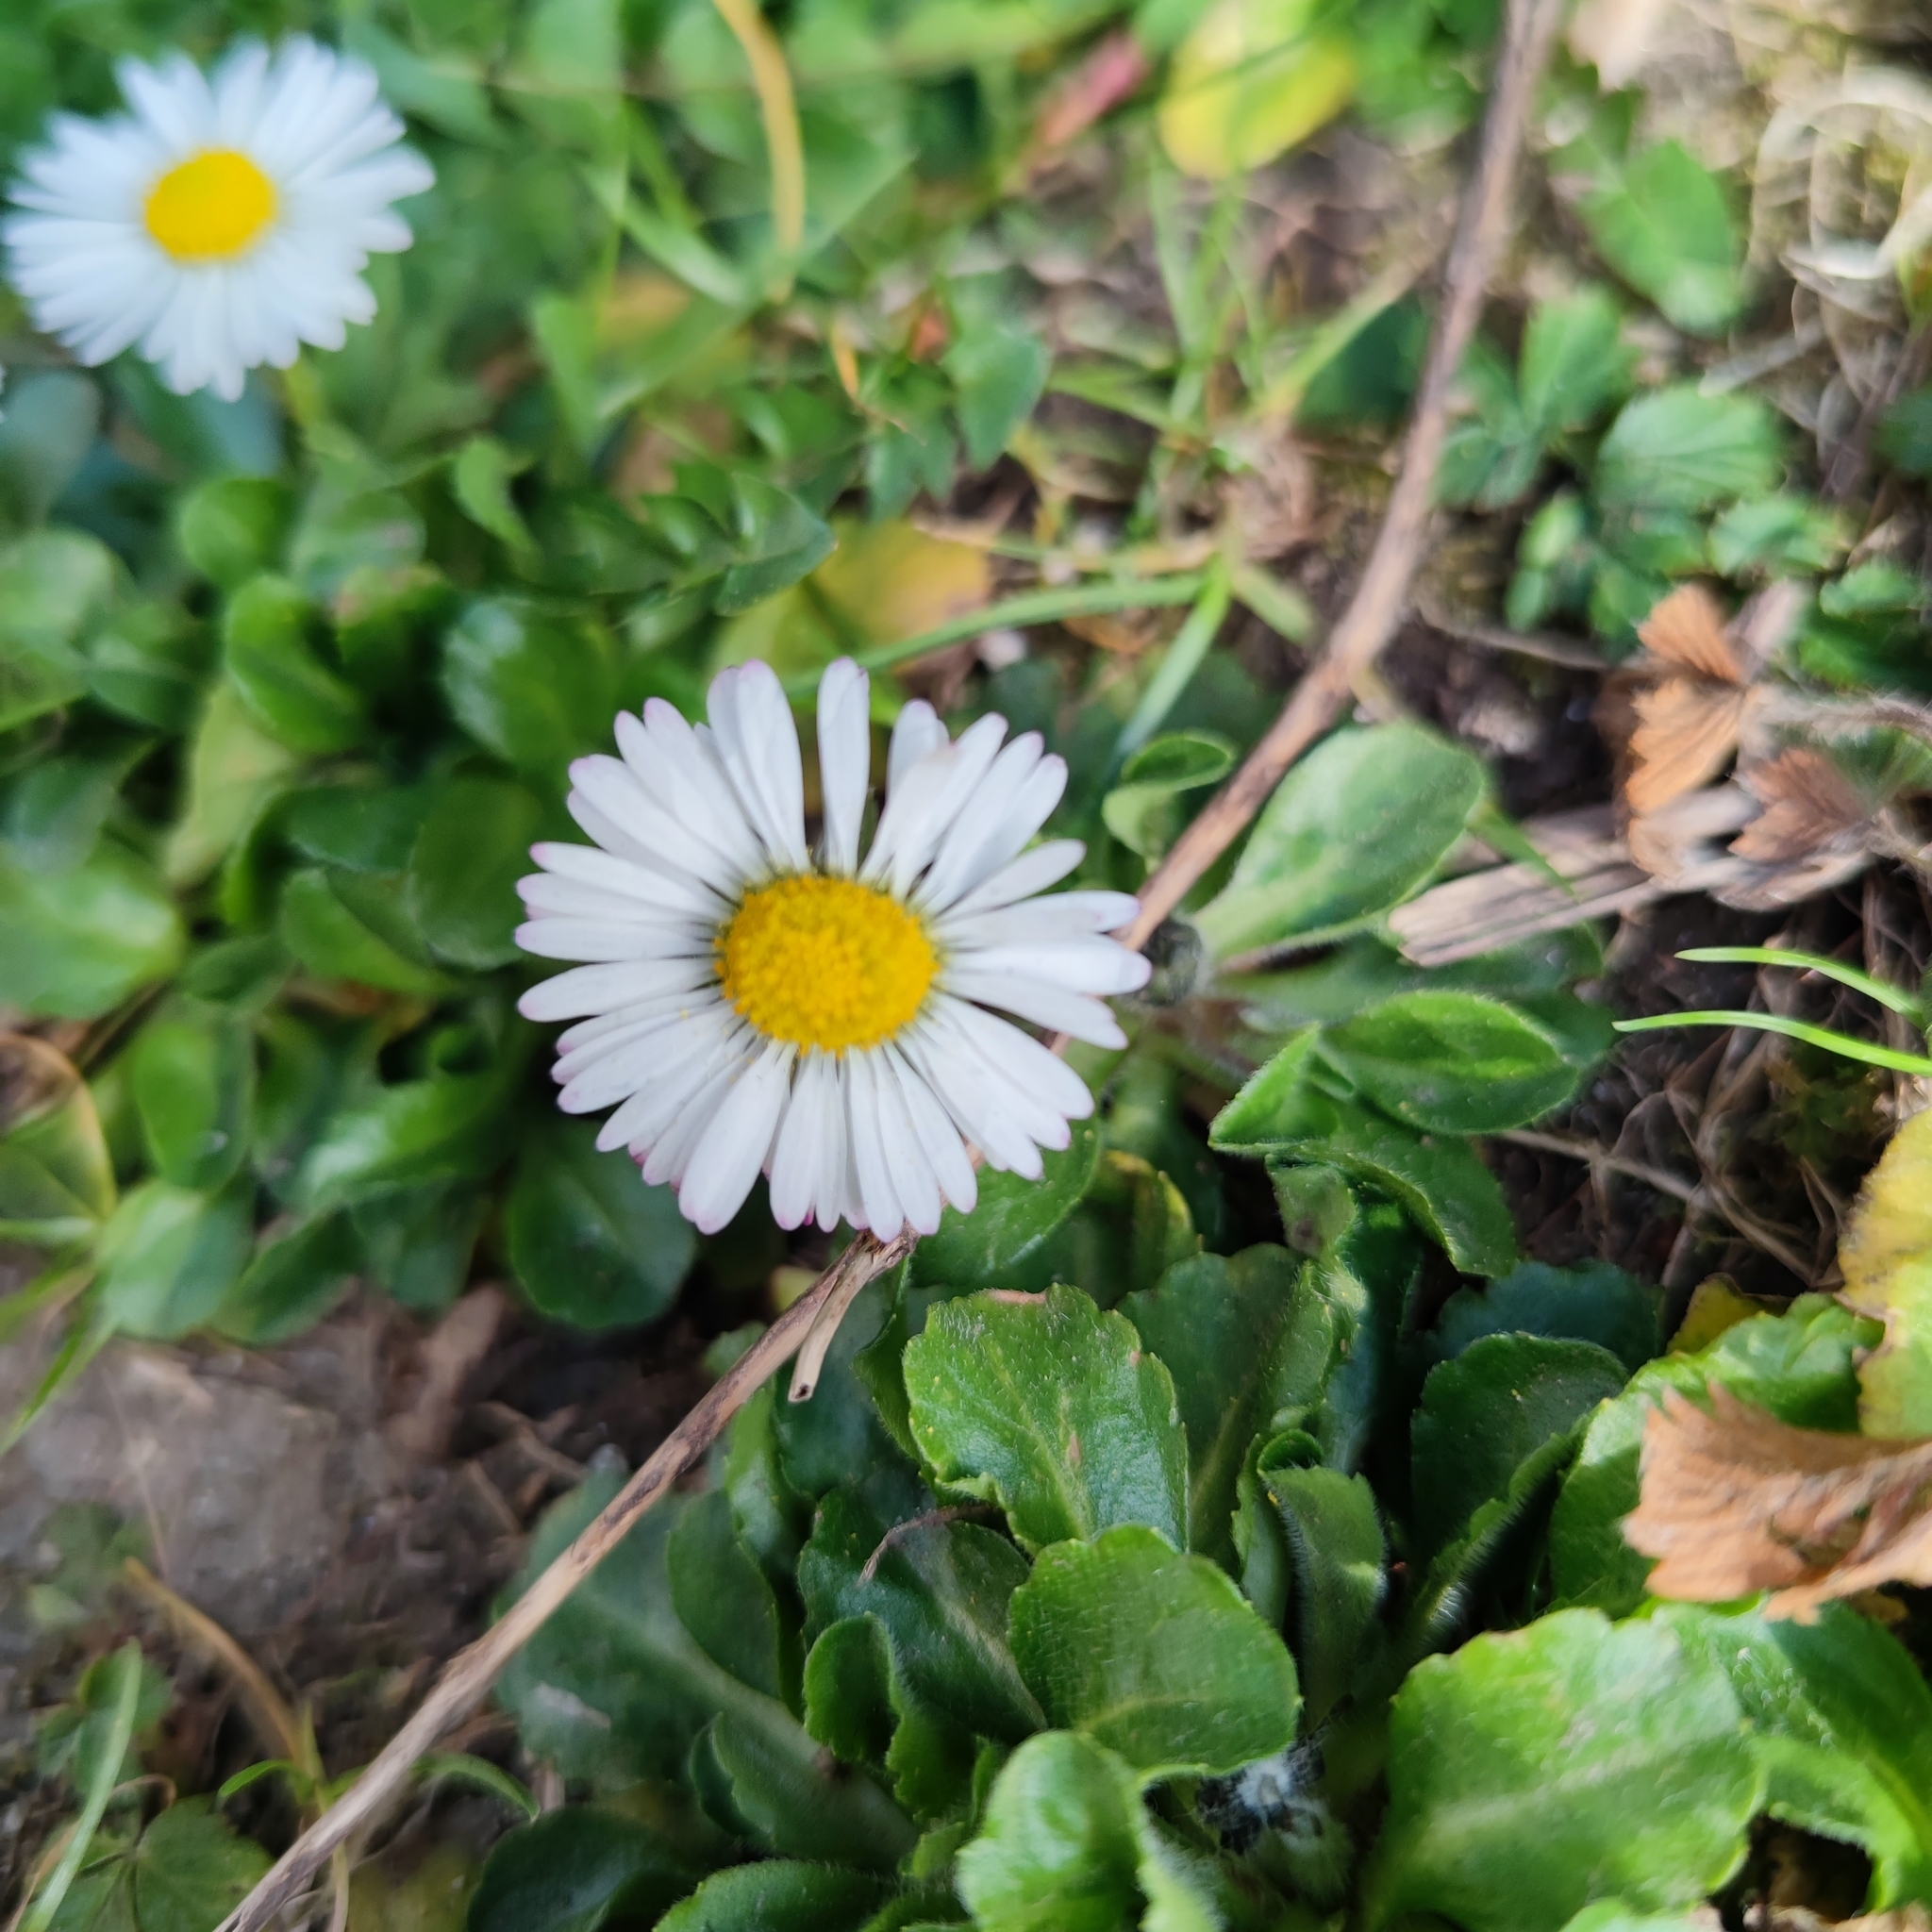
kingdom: Plantae
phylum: Tracheophyta
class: Magnoliopsida
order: Asterales
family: Asteraceae
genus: Bellis
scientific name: Bellis perennis
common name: Lawndaisy
